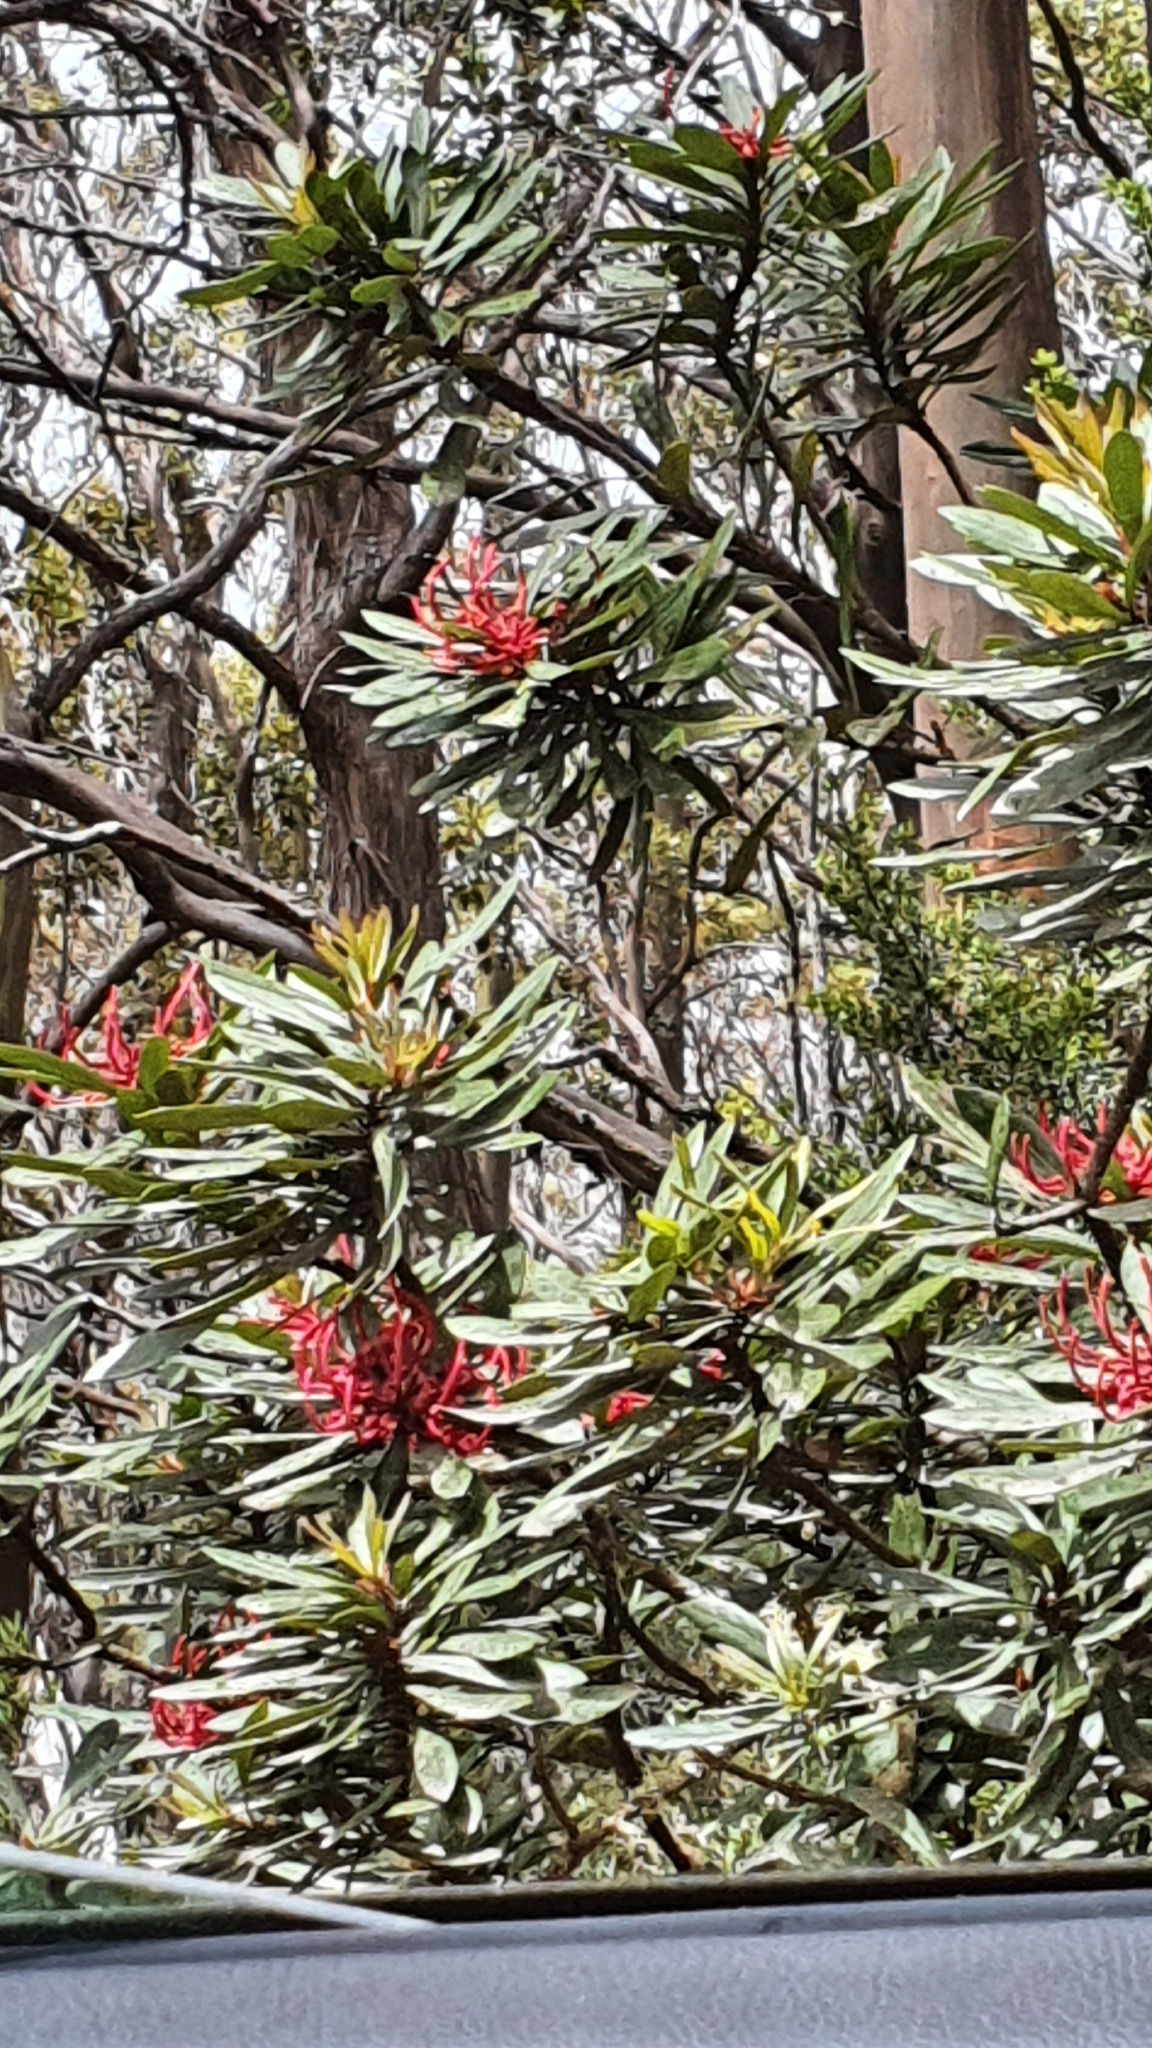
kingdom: Plantae
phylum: Tracheophyta
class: Magnoliopsida
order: Proteales
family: Proteaceae
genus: Telopea
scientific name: Telopea truncata
